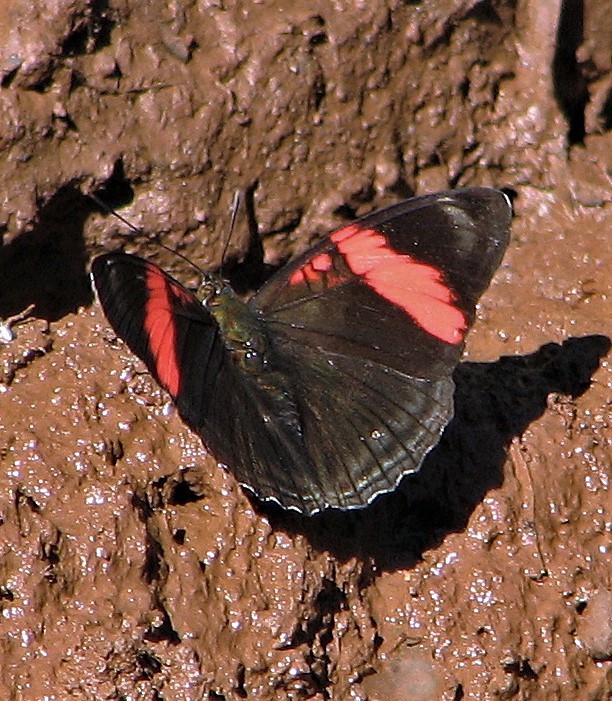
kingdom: Animalia
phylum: Arthropoda
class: Insecta
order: Lepidoptera
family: Nymphalidae
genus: Limenitis
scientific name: Limenitis isis
